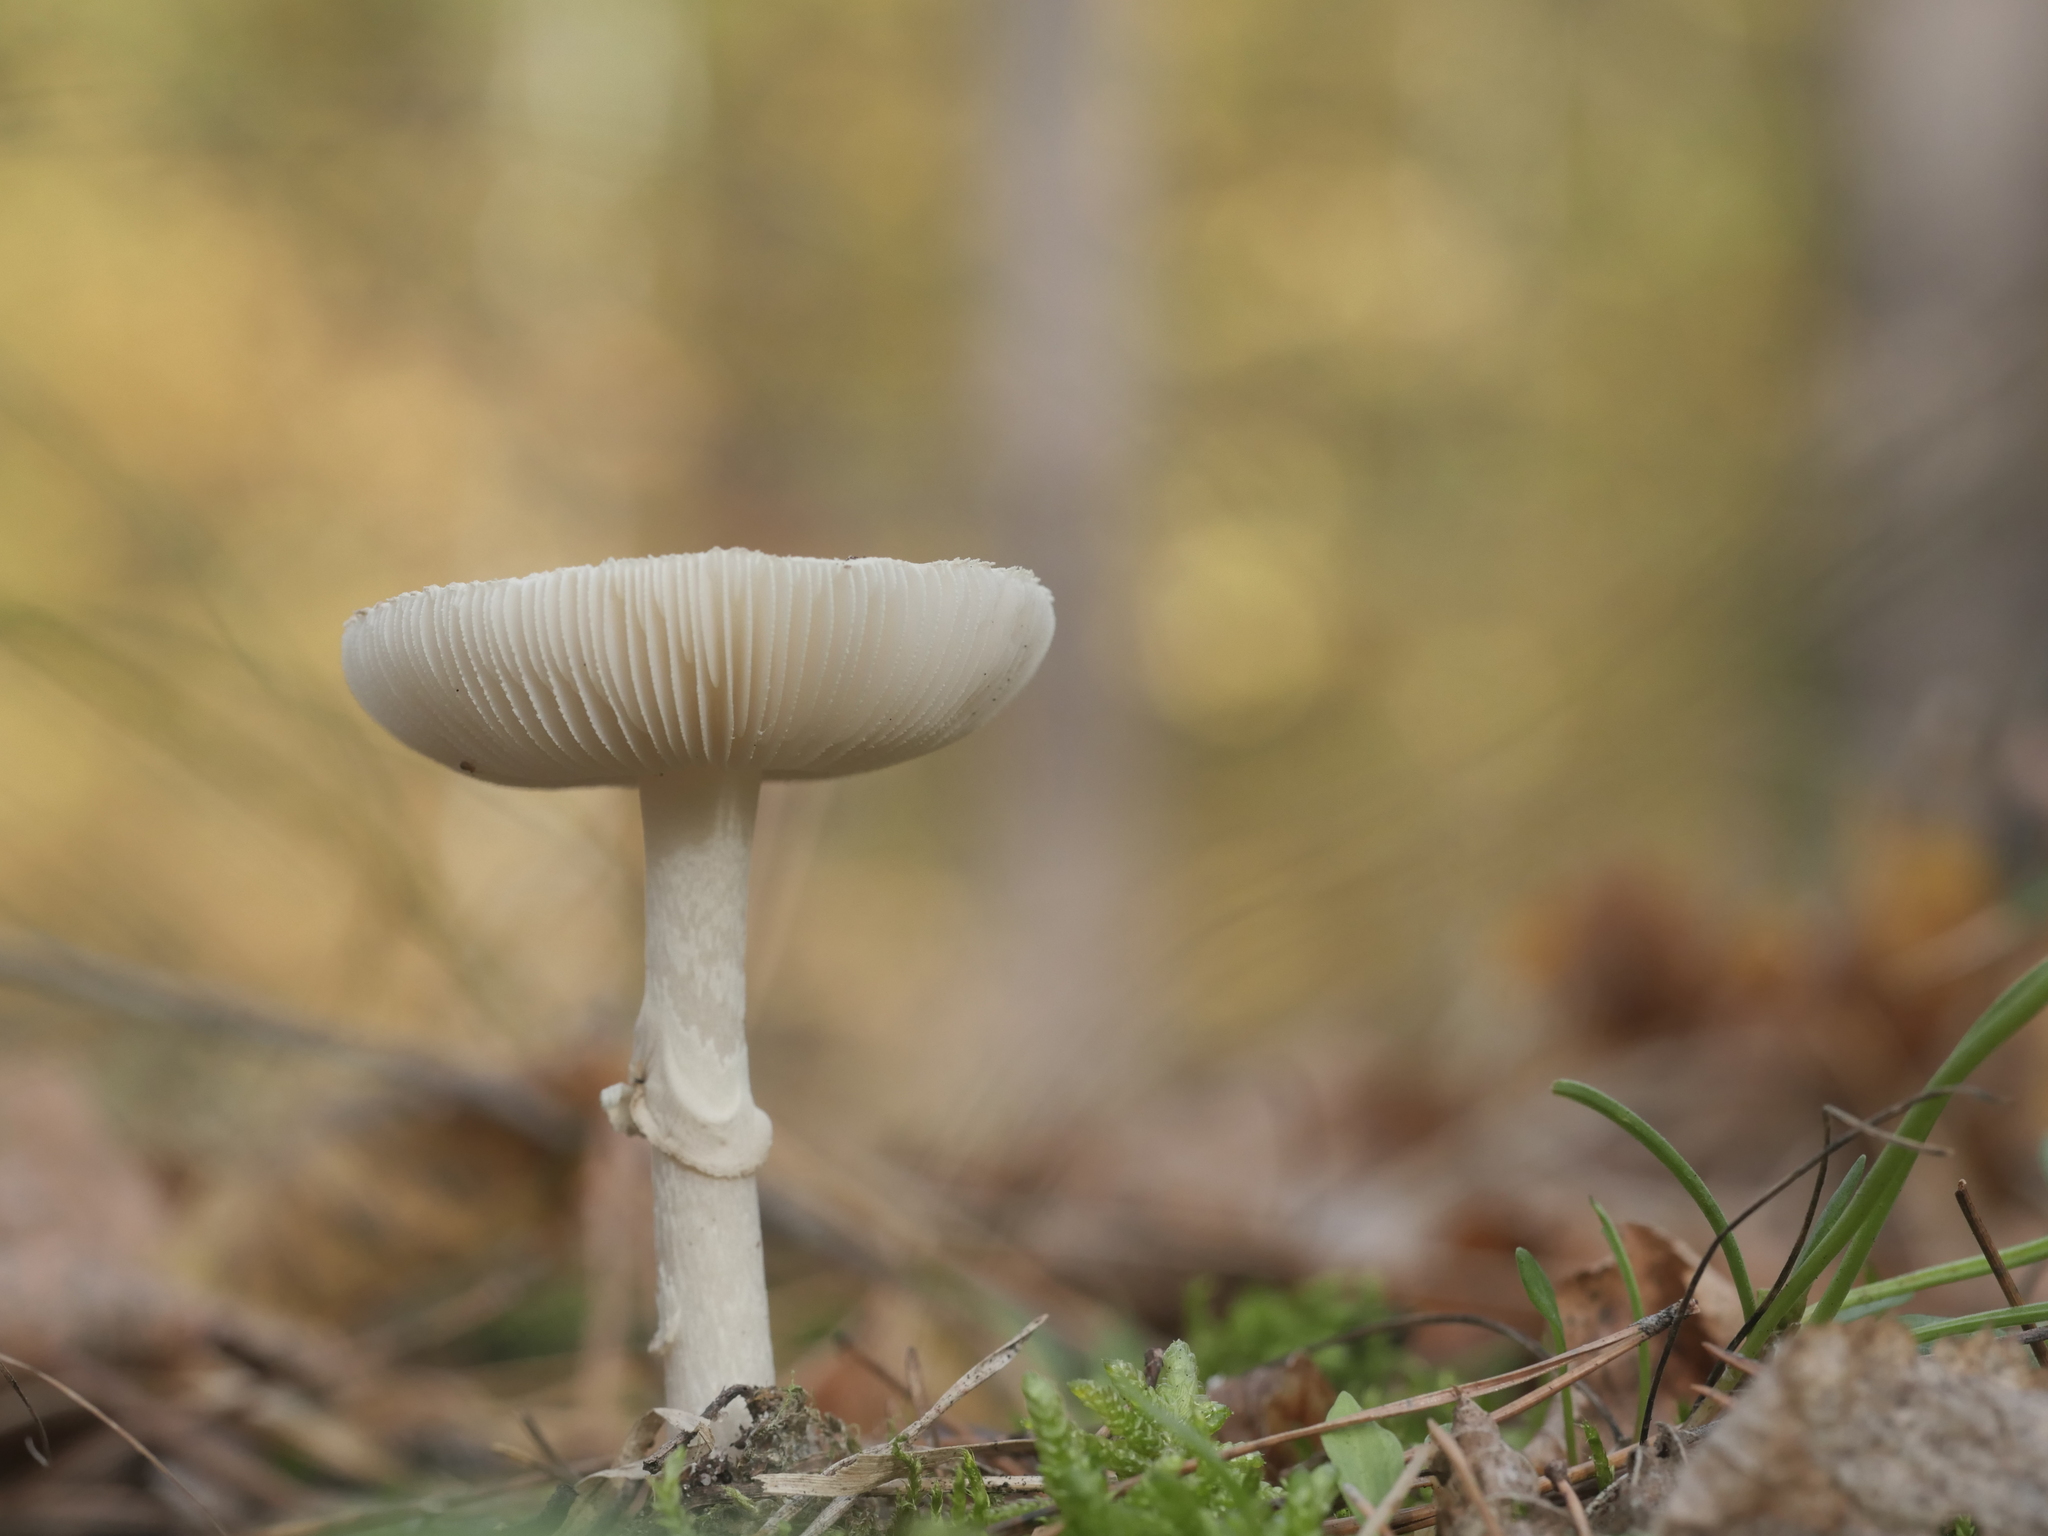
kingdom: Fungi
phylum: Basidiomycota
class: Agaricomycetes
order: Agaricales
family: Amanitaceae
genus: Amanita
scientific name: Amanita citrina
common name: False death-cap
